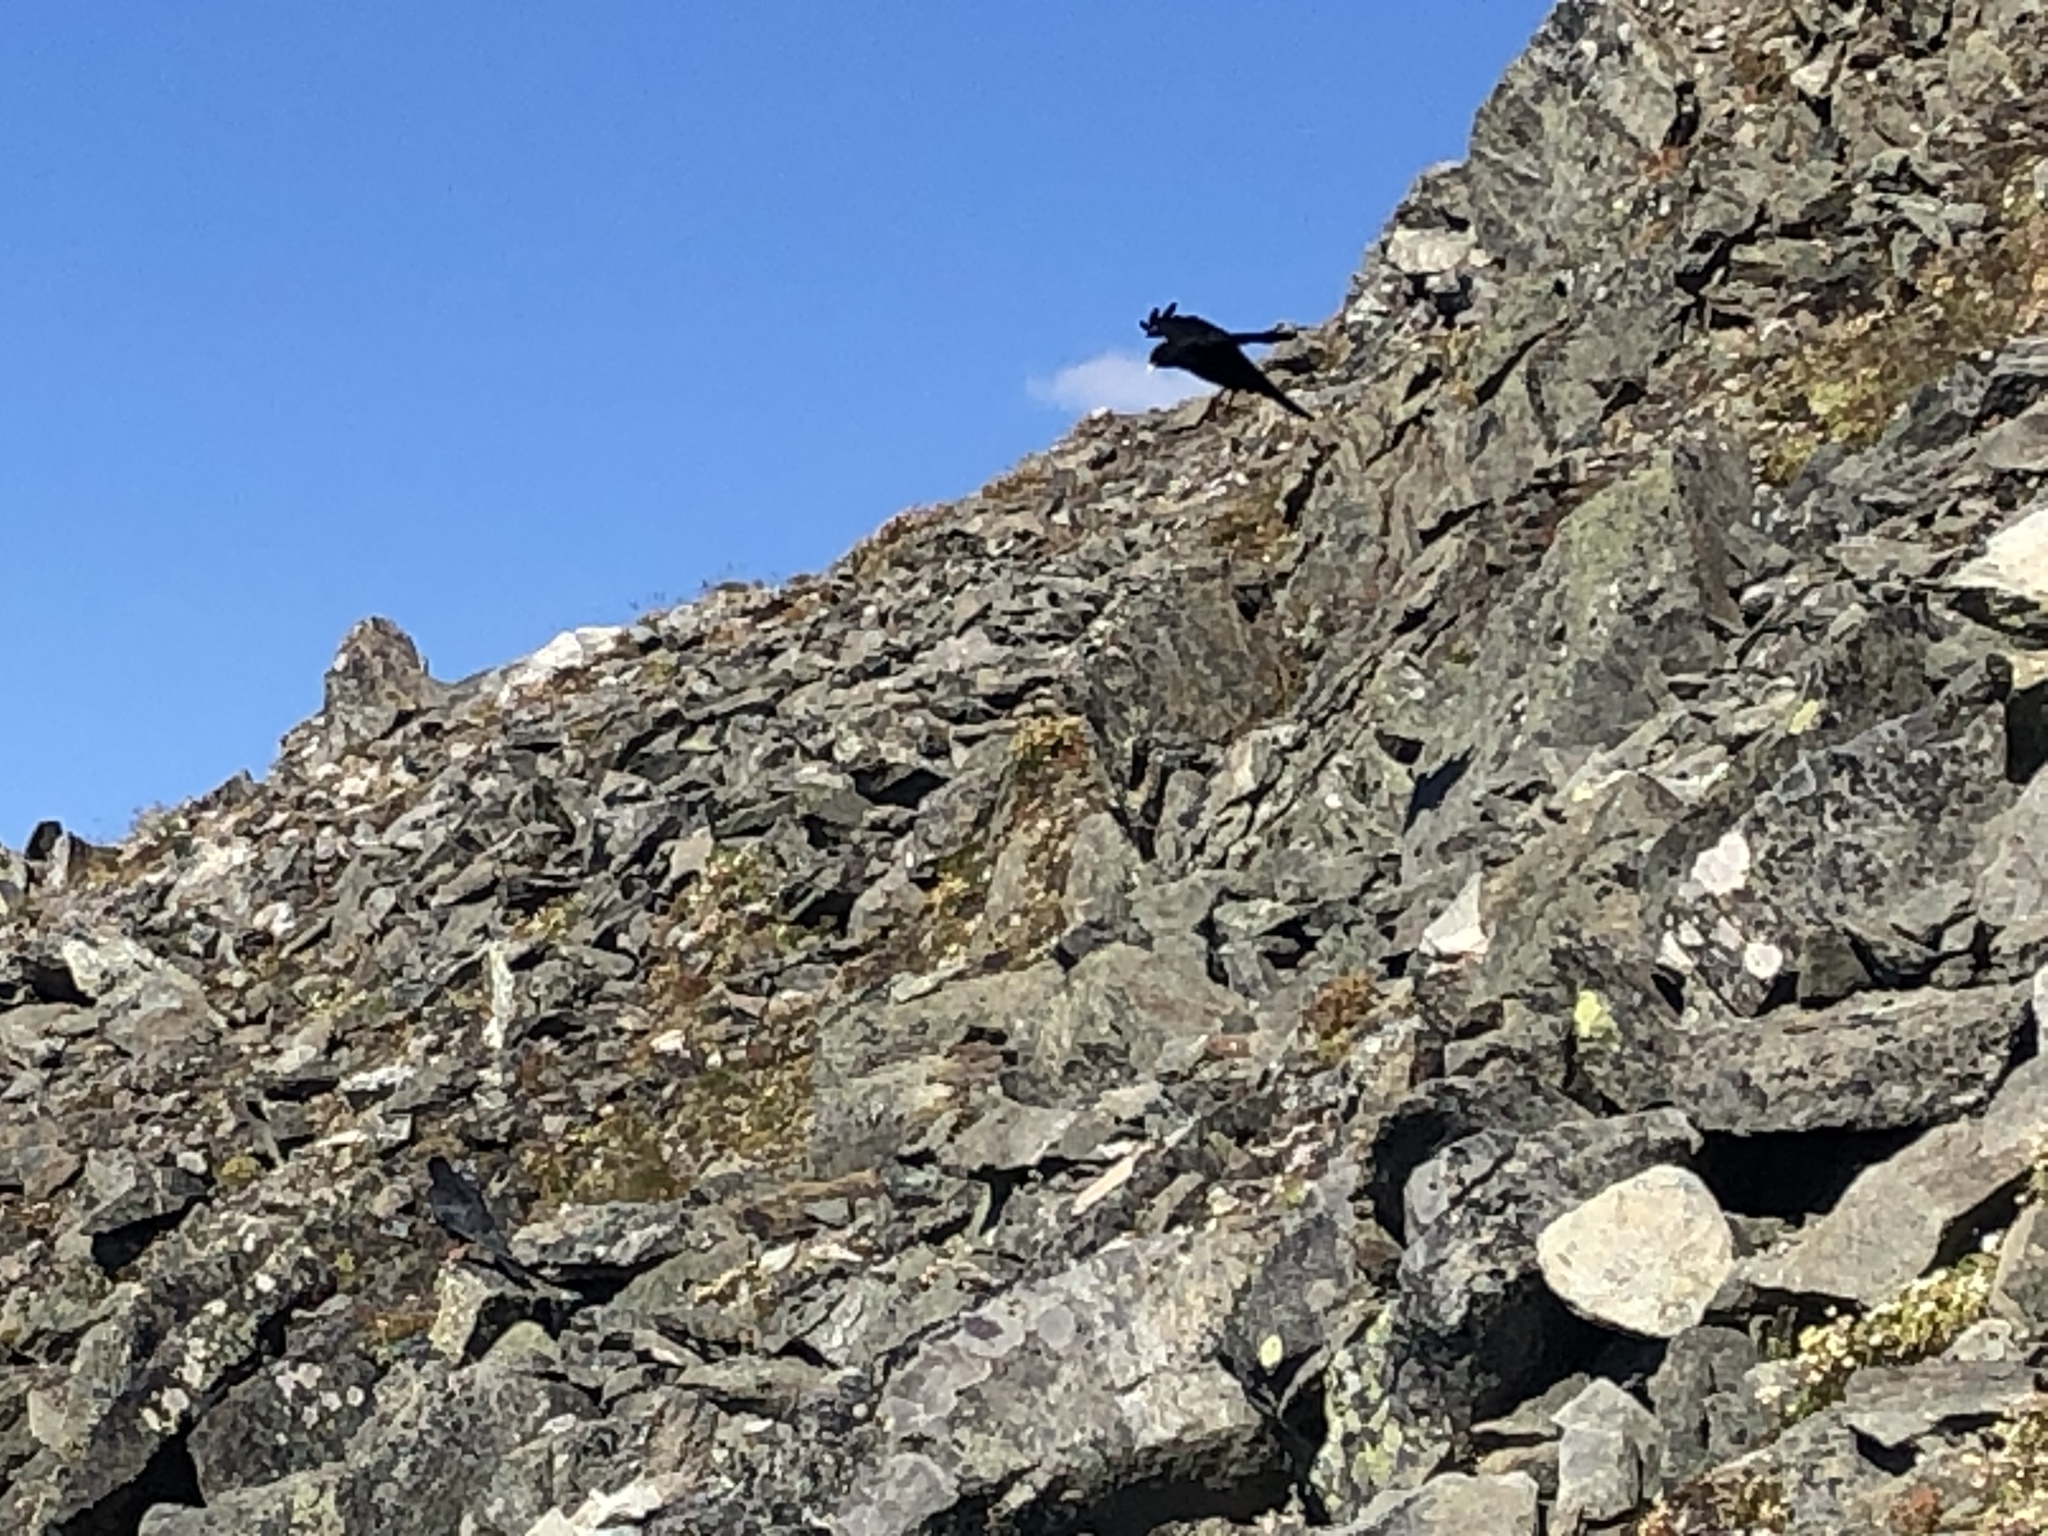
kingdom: Animalia
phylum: Chordata
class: Aves
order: Passeriformes
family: Corvidae
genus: Pyrrhocorax
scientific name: Pyrrhocorax graculus
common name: Alpine chough
